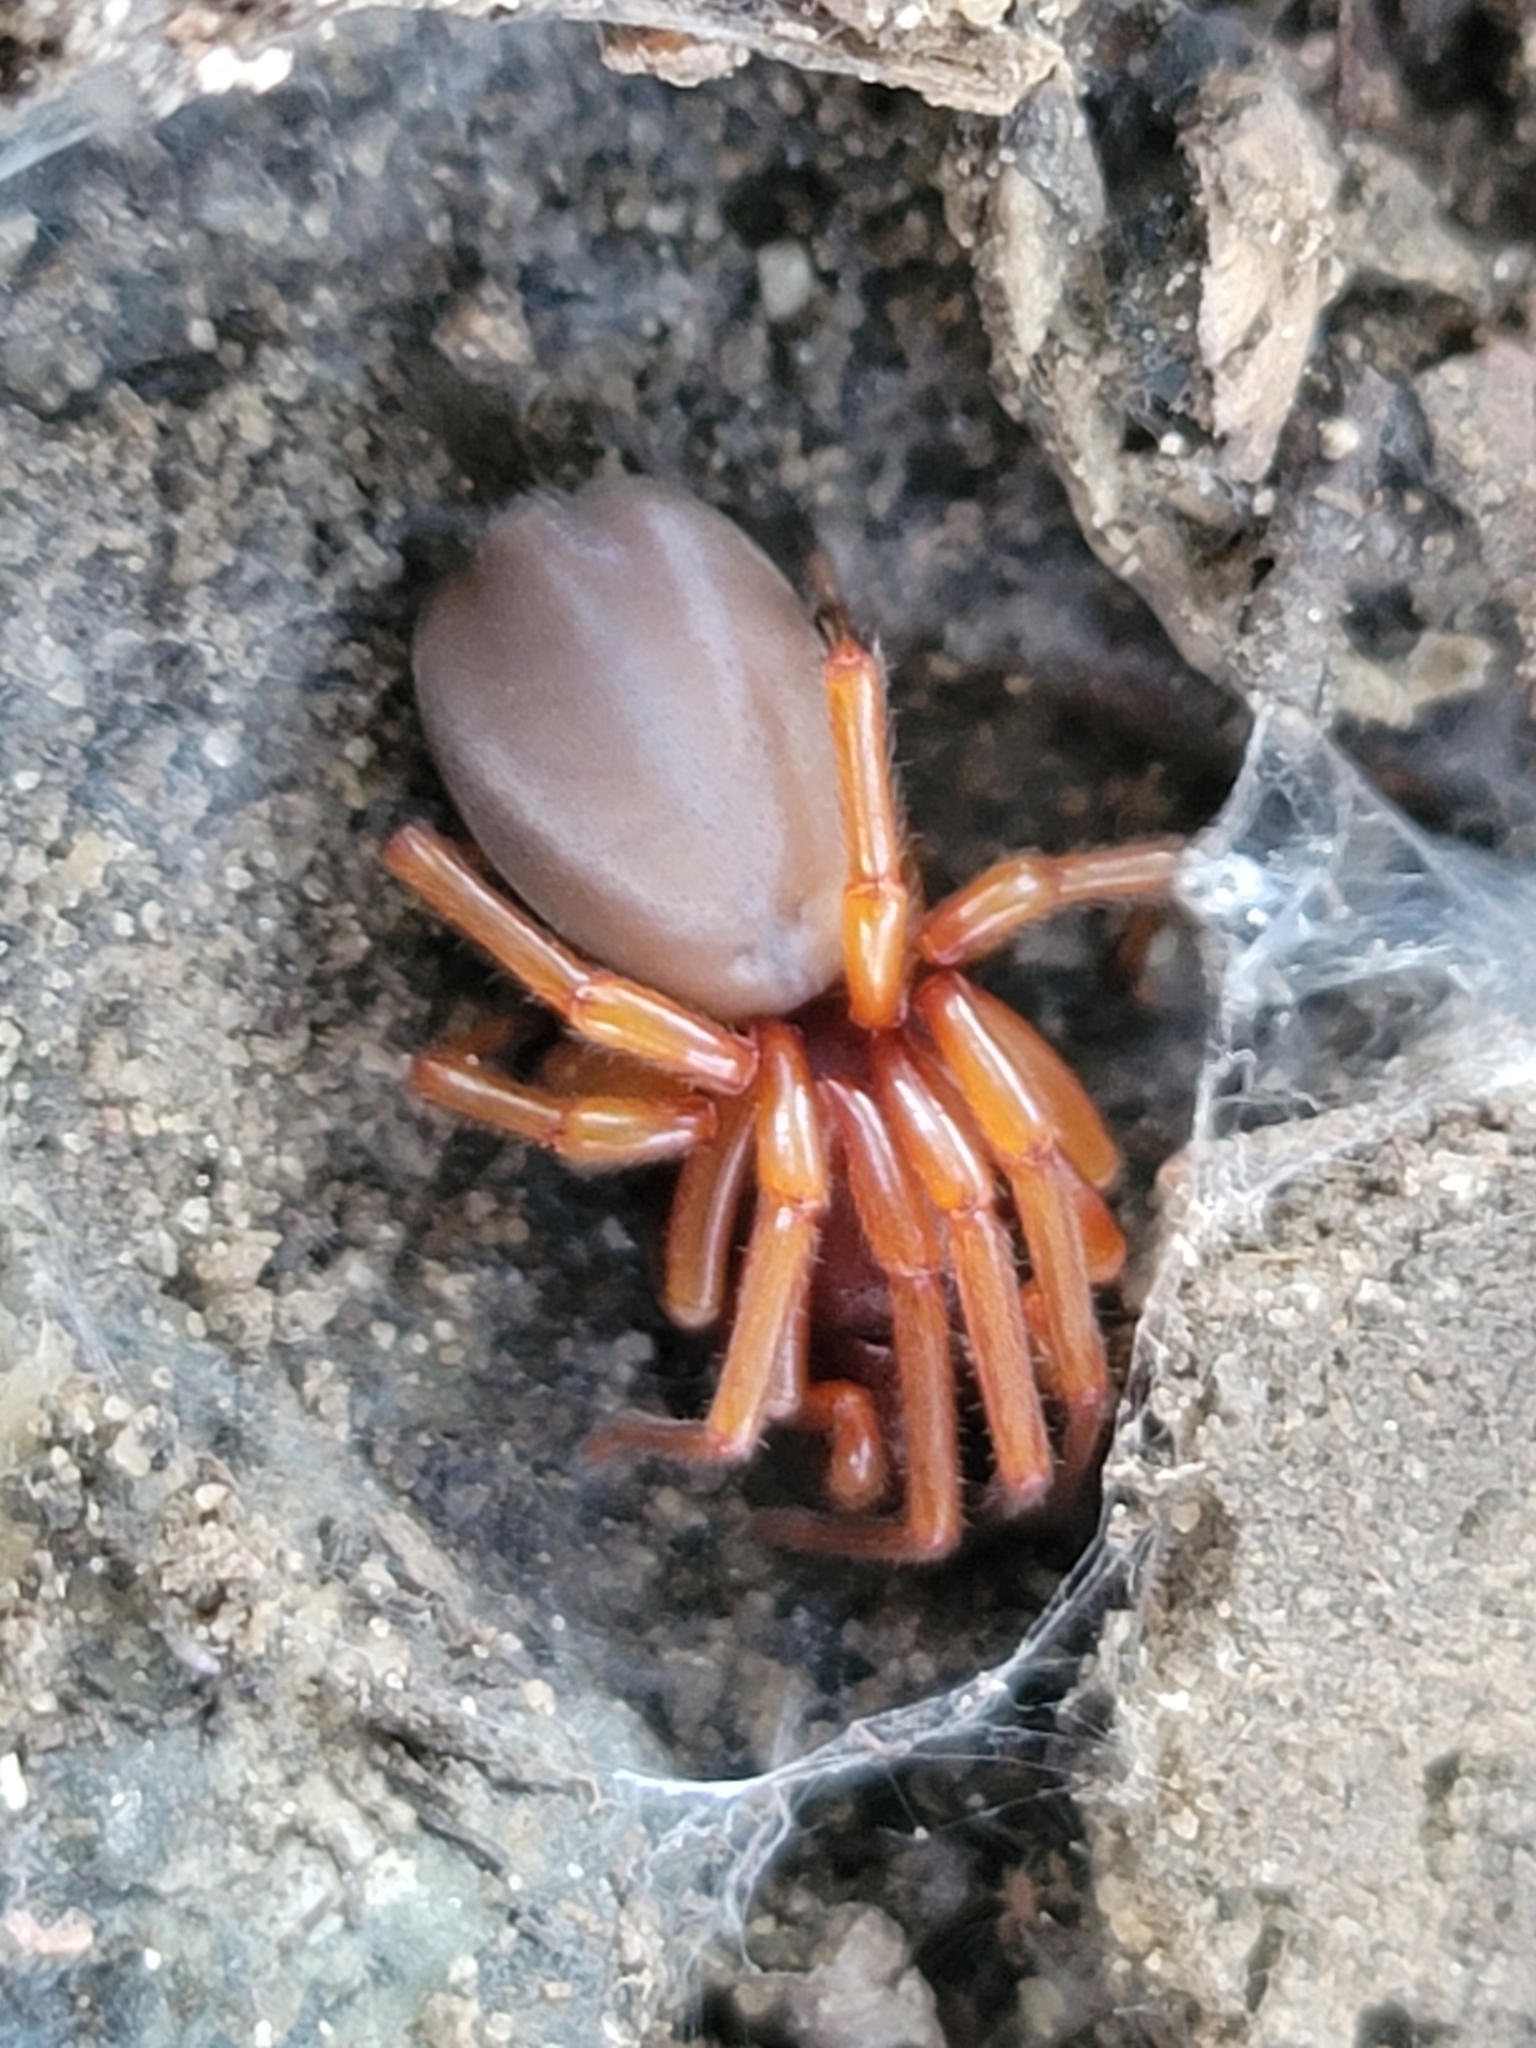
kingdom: Animalia
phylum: Arthropoda
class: Arachnida
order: Araneae
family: Dysderidae
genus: Dysdera
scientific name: Dysdera crocata
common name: Woodlouse spider
